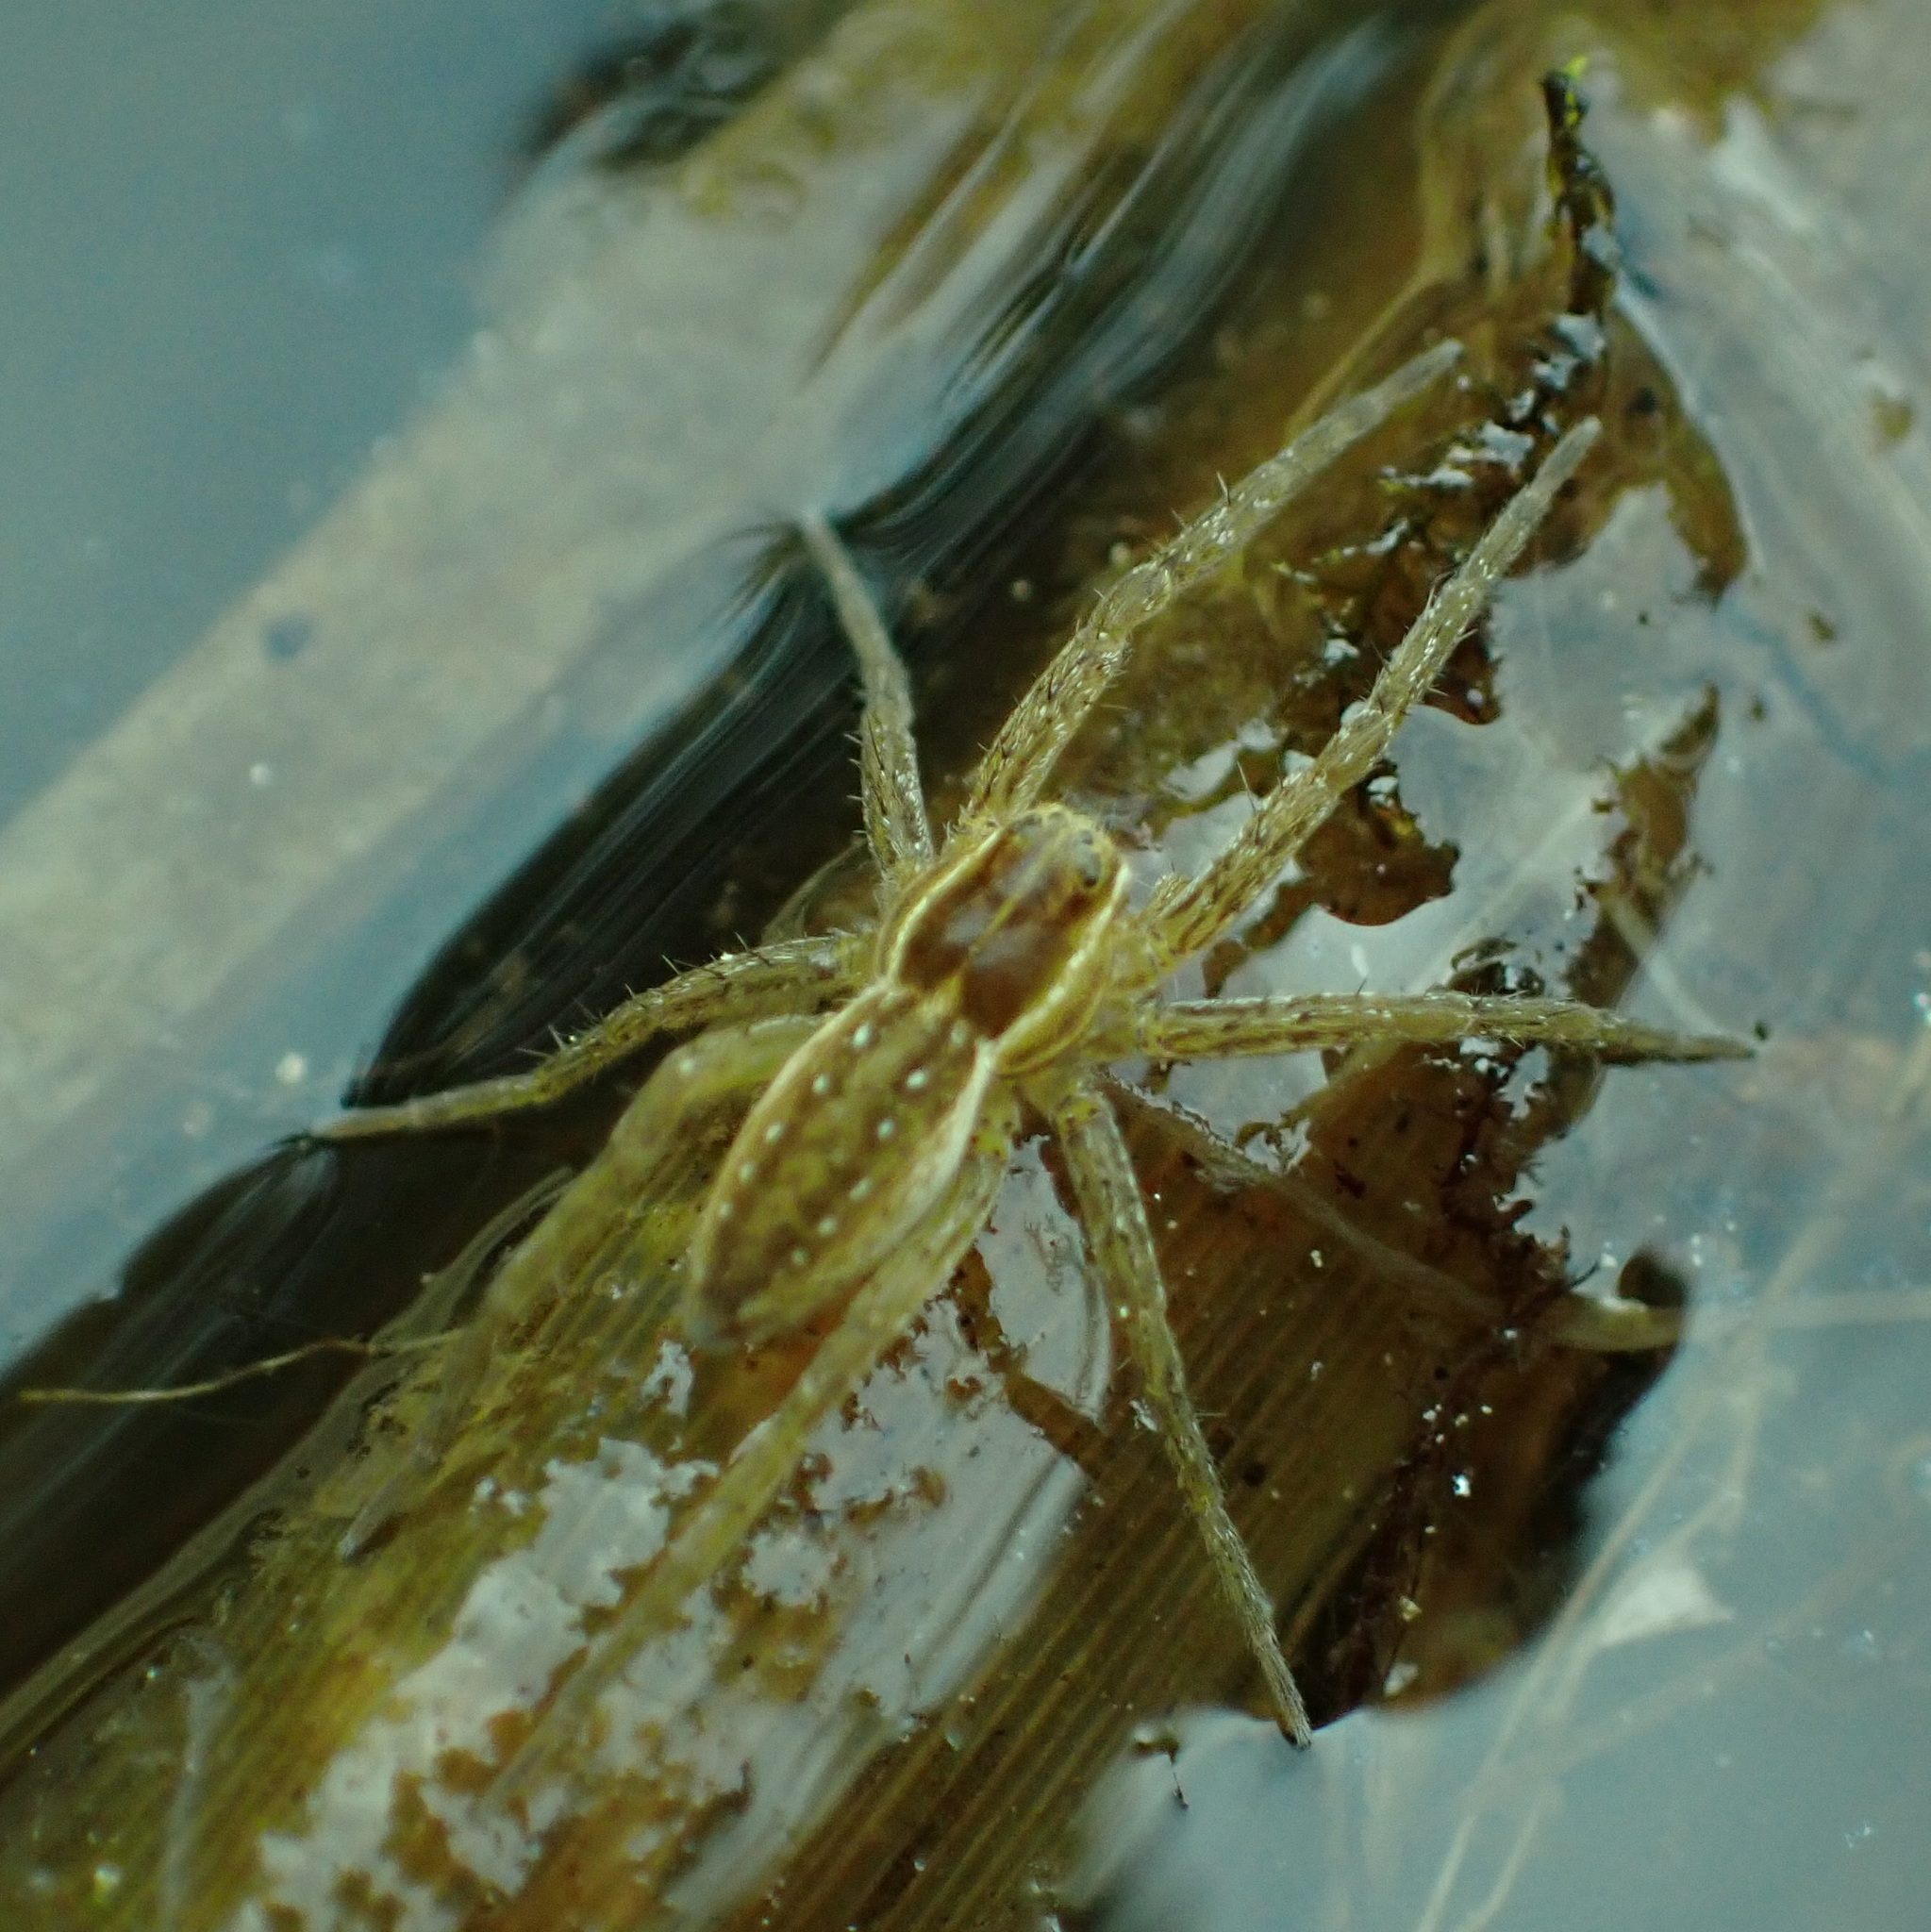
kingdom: Animalia
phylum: Arthropoda
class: Arachnida
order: Araneae
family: Pisauridae
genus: Dolomedes
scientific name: Dolomedes triton
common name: Six-spotted fishing spider
